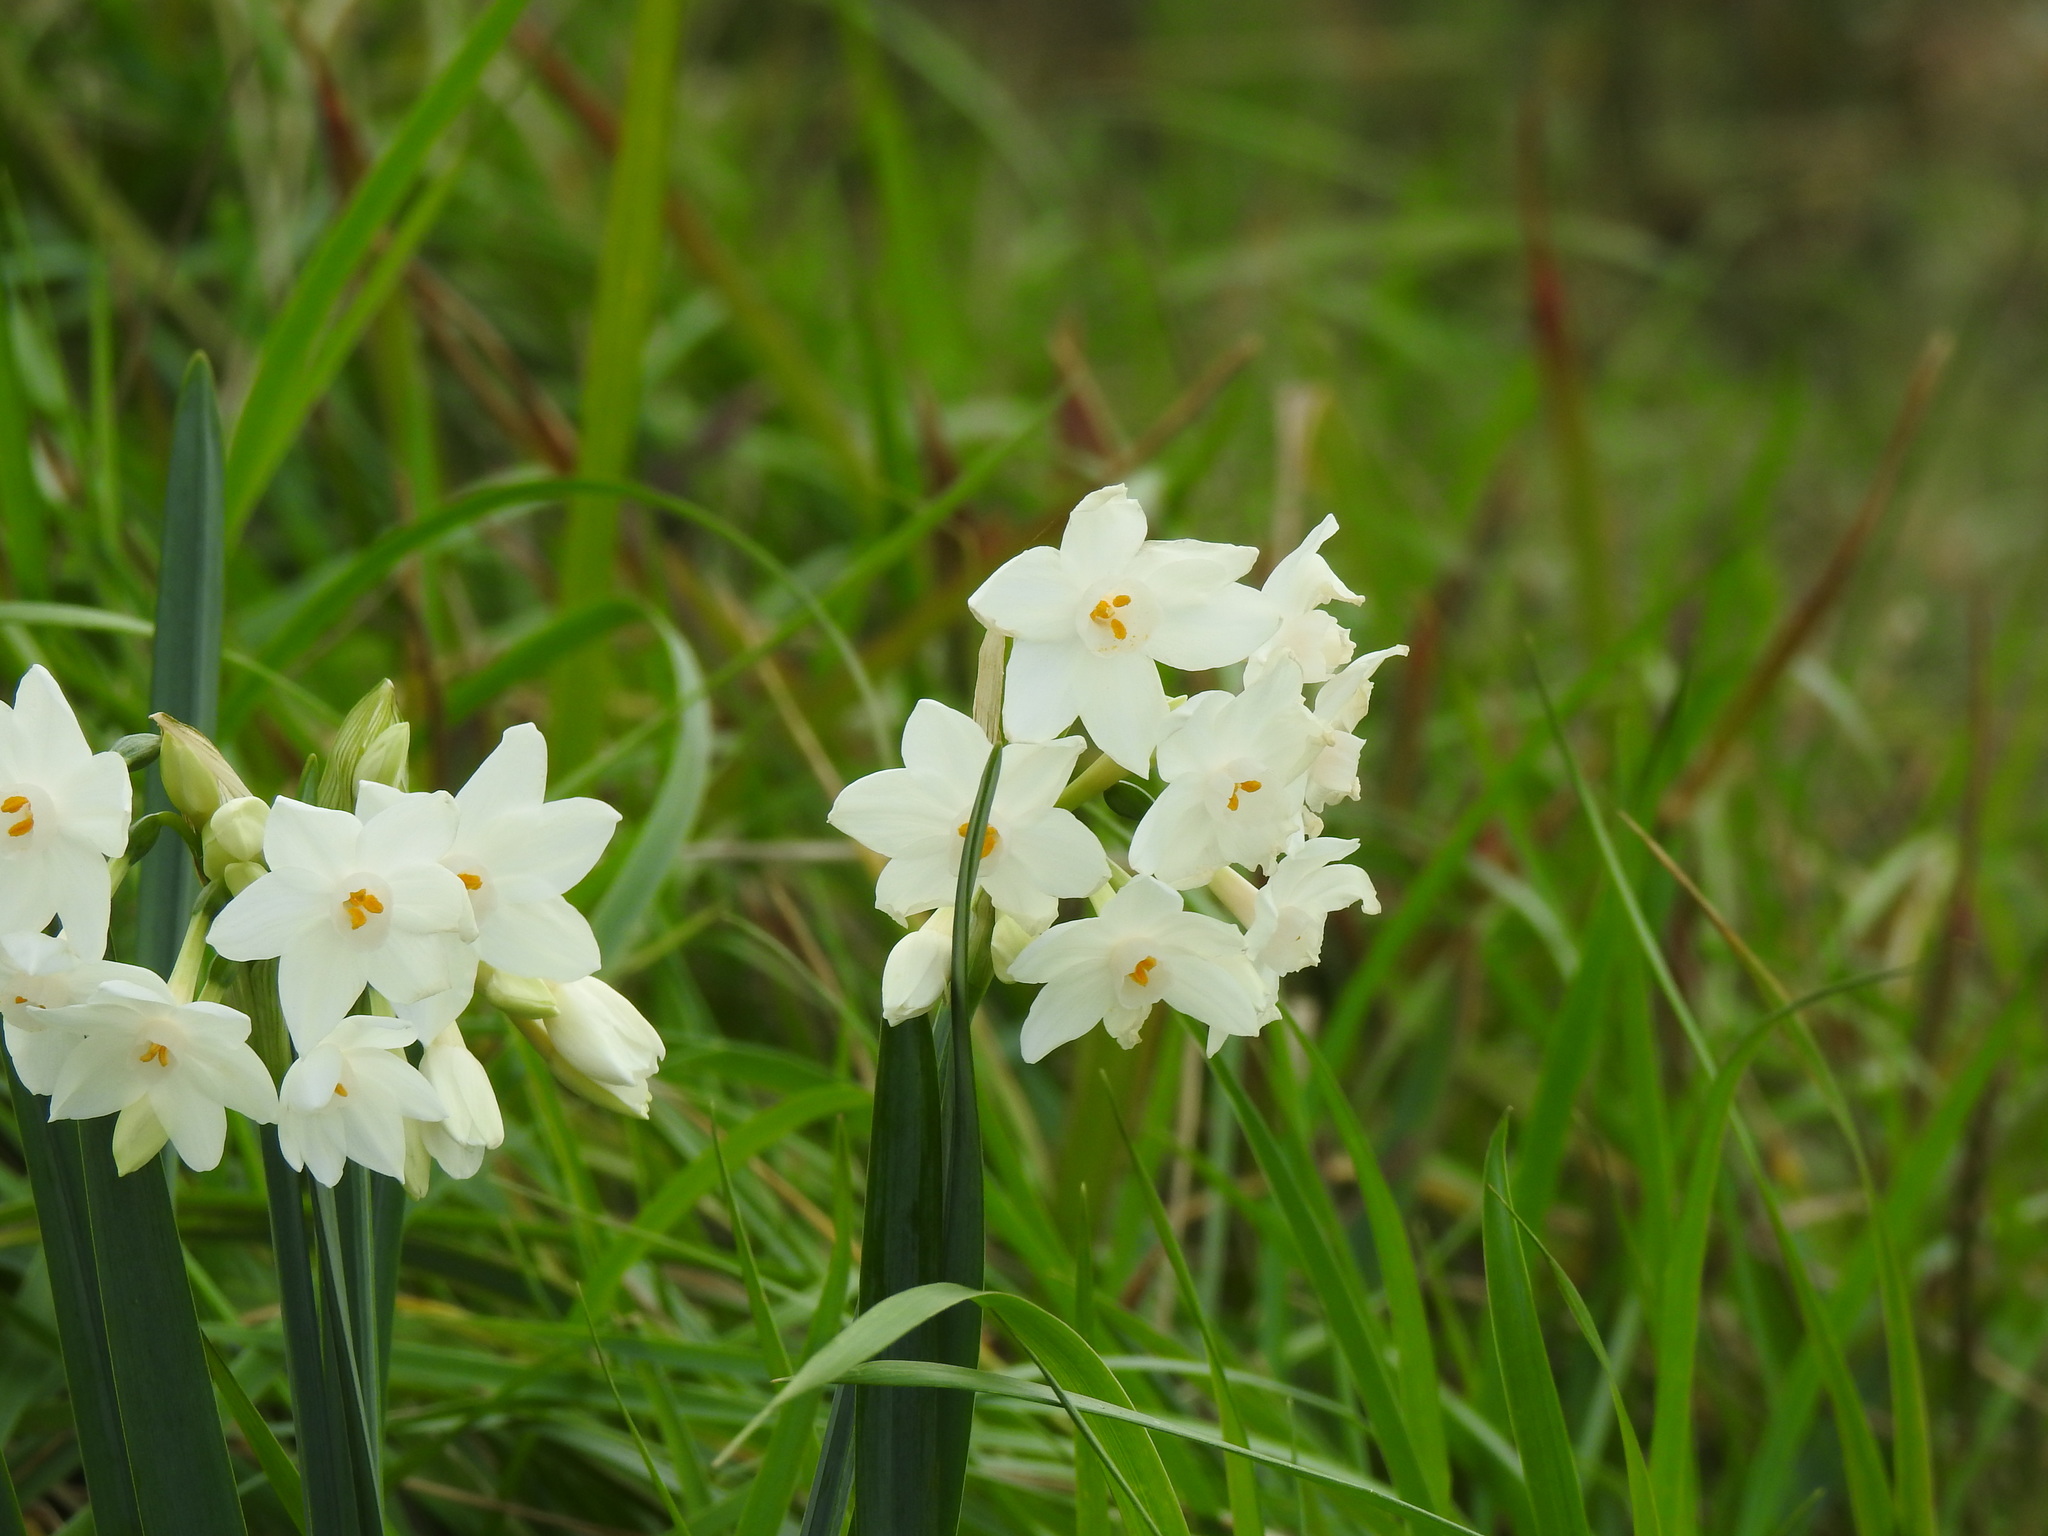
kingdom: Plantae
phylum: Tracheophyta
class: Liliopsida
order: Asparagales
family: Amaryllidaceae
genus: Narcissus
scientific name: Narcissus papyraceus
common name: Paper-white daffodil
